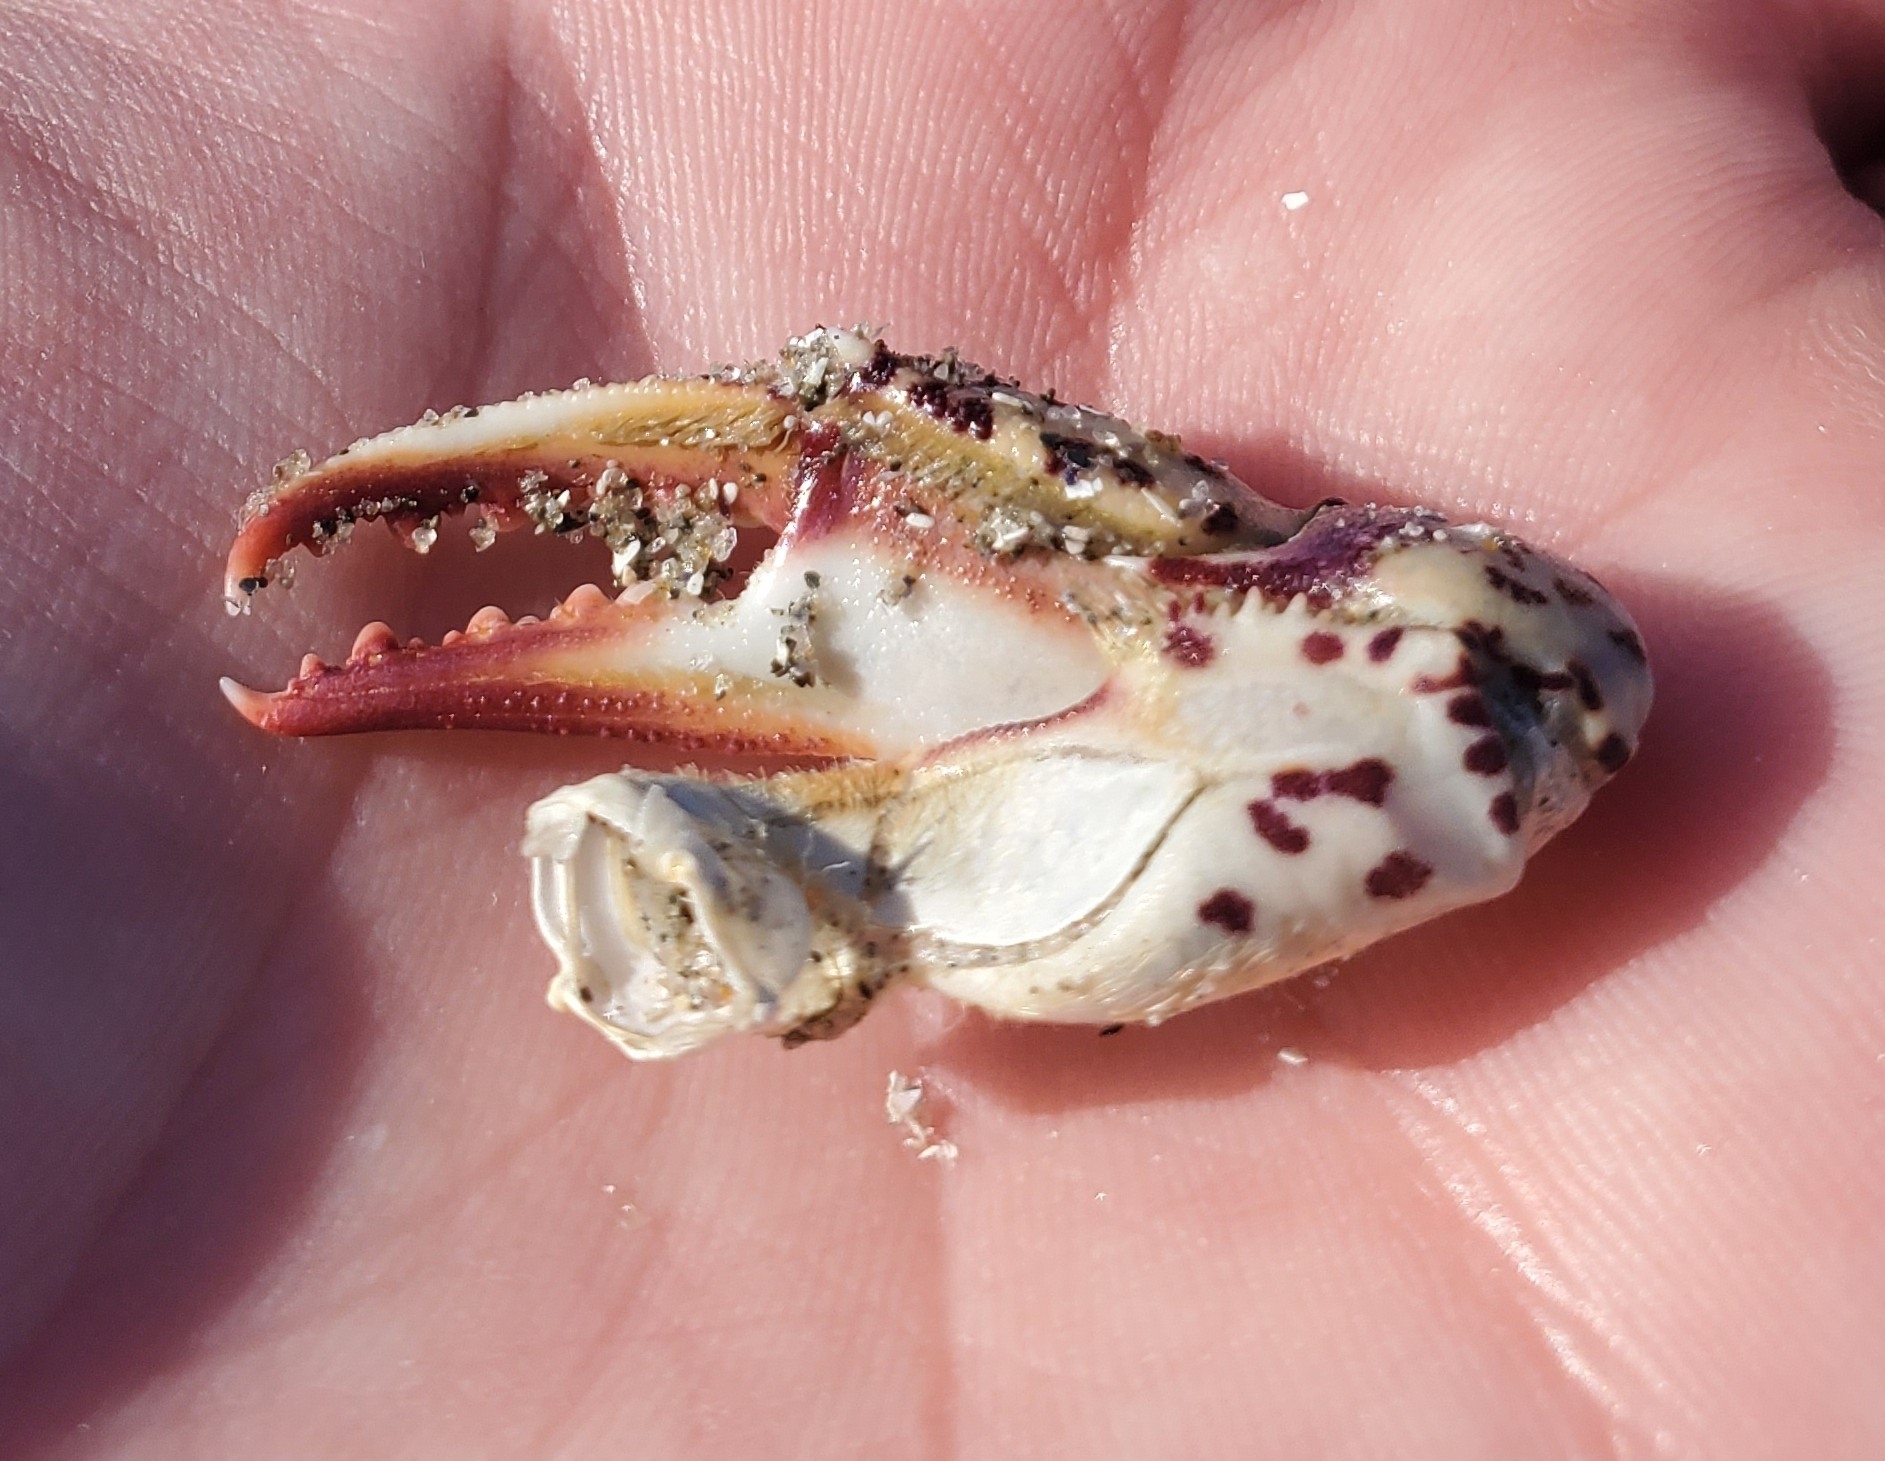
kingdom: Animalia
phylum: Arthropoda
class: Malacostraca
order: Decapoda
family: Ovalipidae
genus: Ovalipes
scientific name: Ovalipes ocellatus
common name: Lady crab
